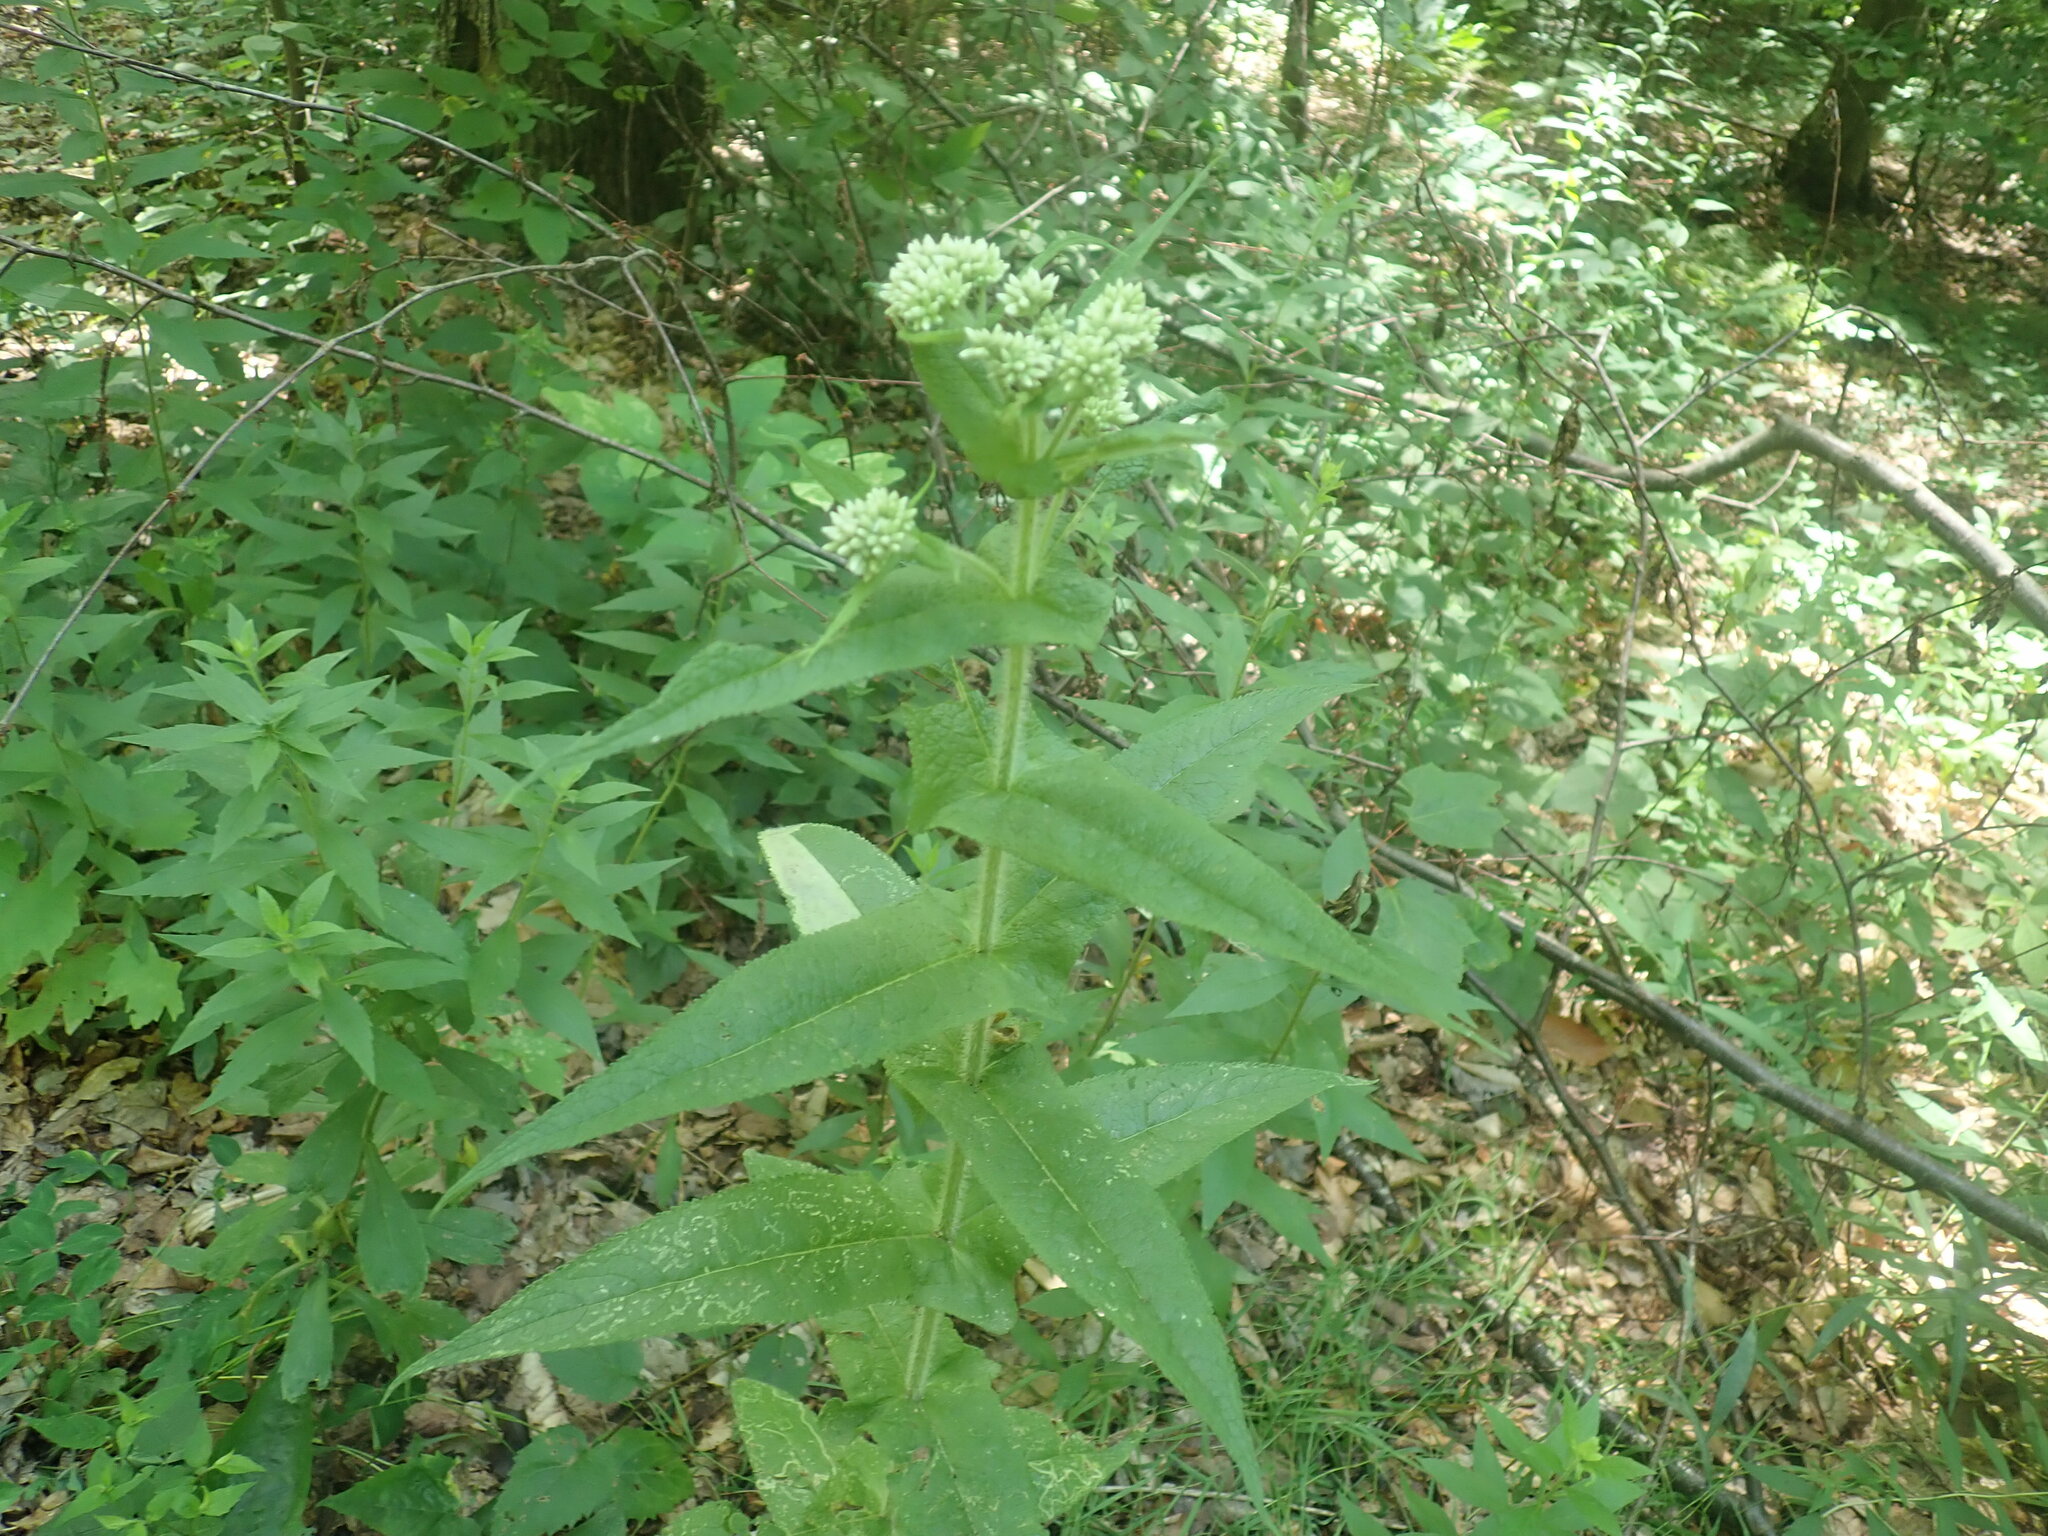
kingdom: Plantae
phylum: Tracheophyta
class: Magnoliopsida
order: Asterales
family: Asteraceae
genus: Eupatorium
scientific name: Eupatorium perfoliatum
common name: Boneset
